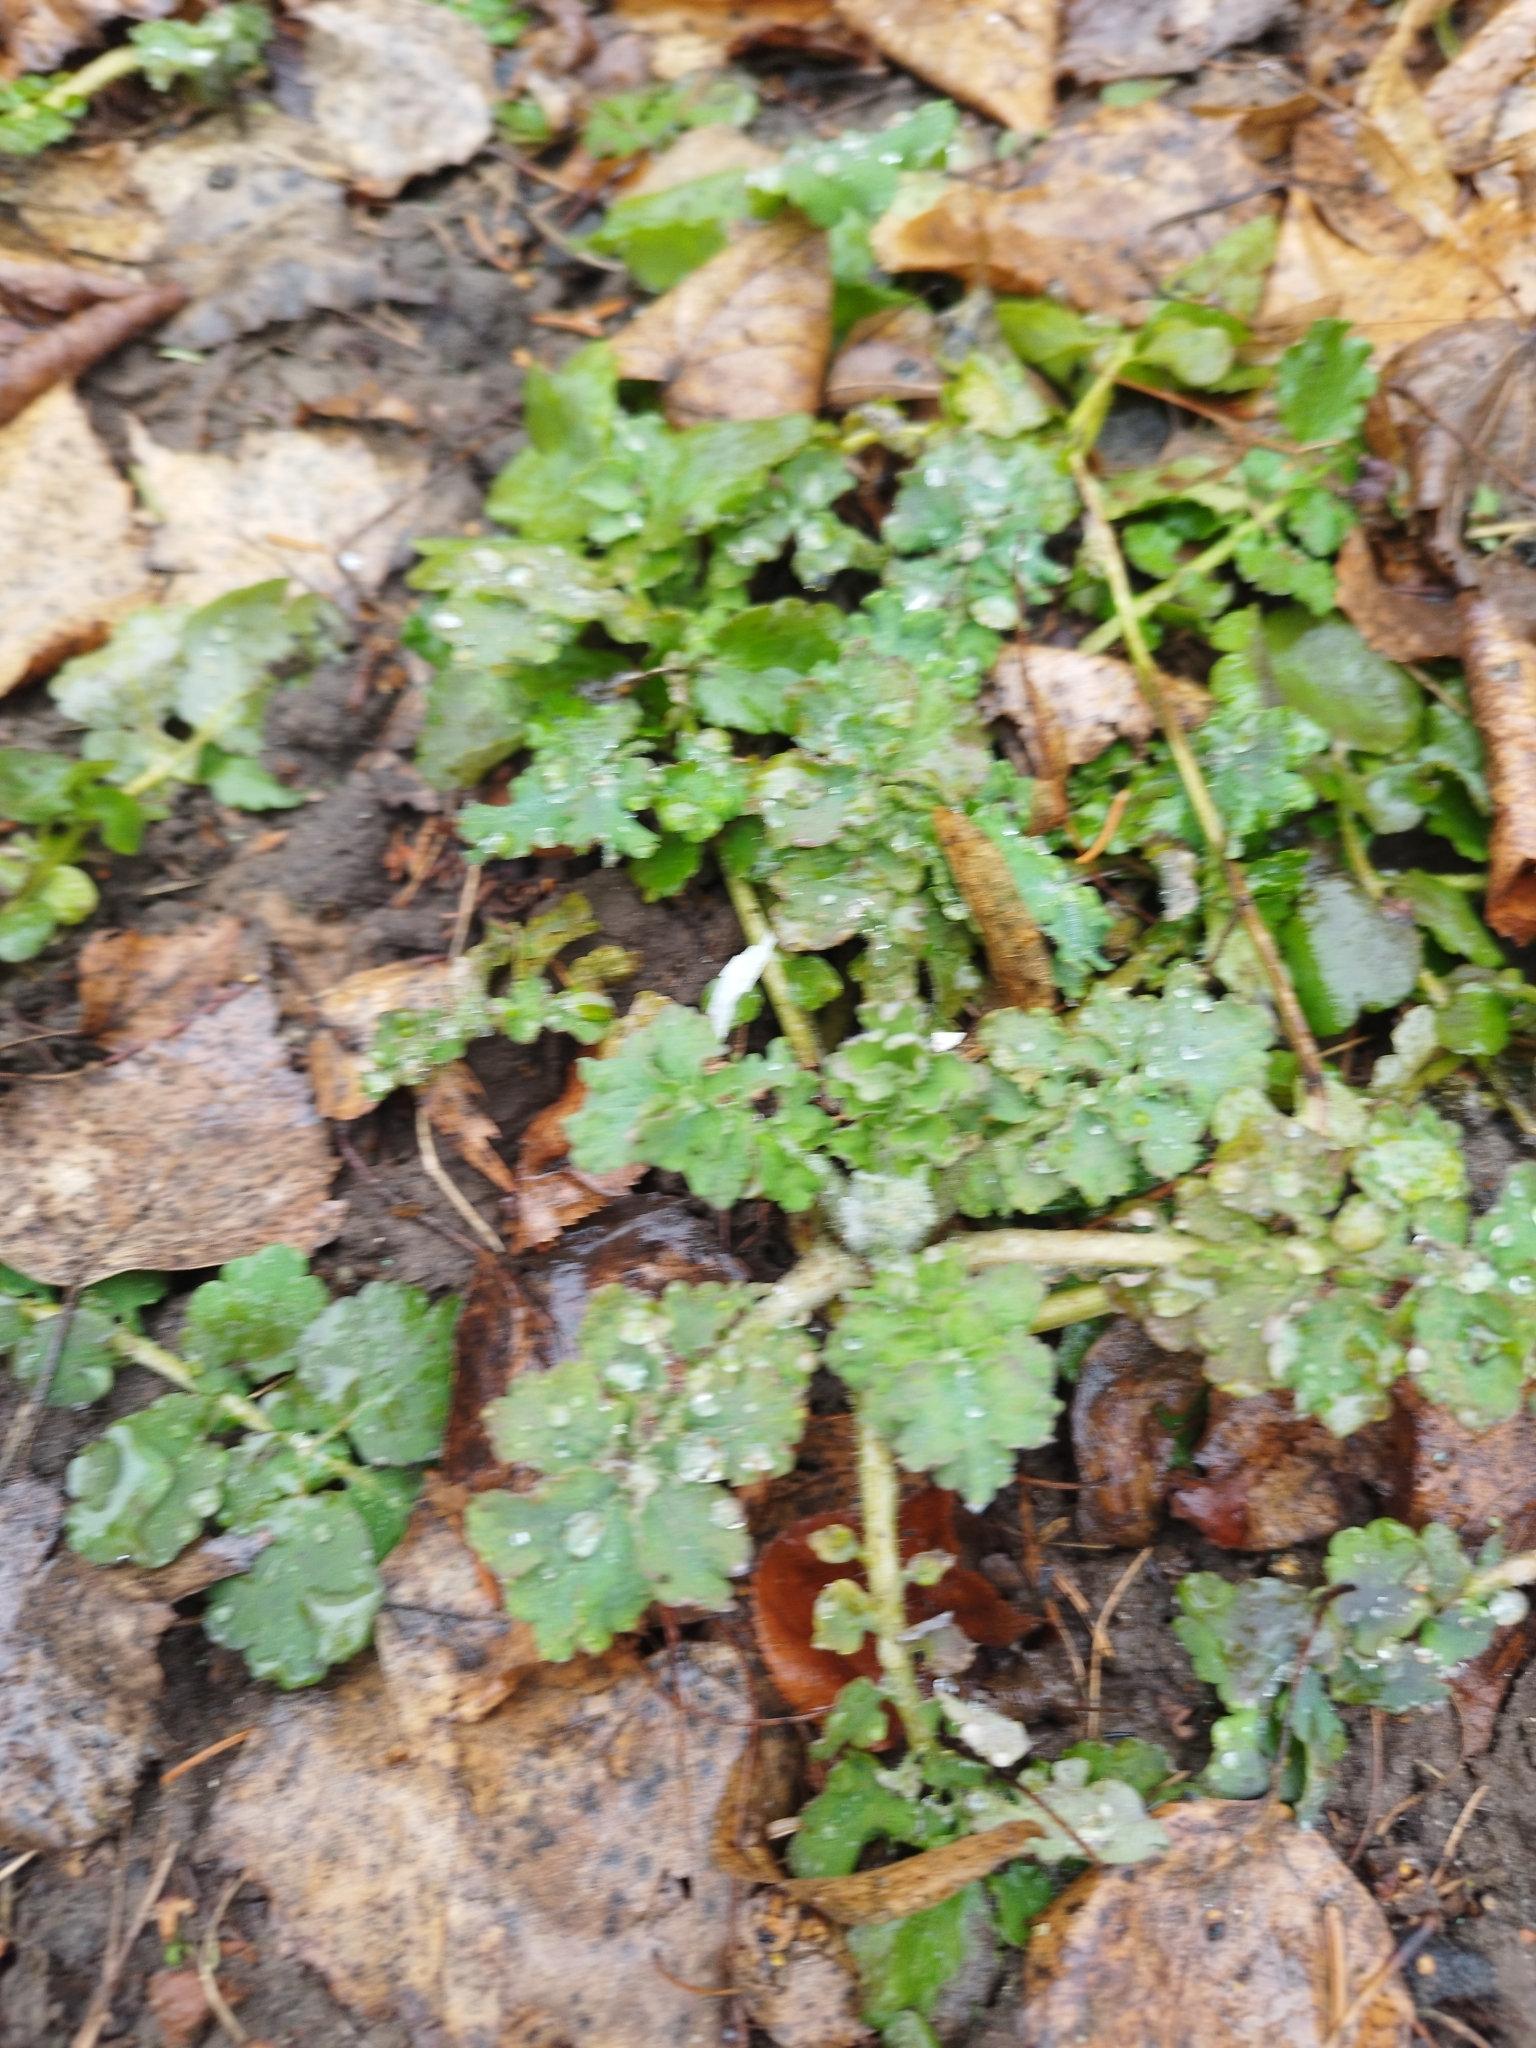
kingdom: Plantae
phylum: Tracheophyta
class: Magnoliopsida
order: Ranunculales
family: Papaveraceae
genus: Chelidonium
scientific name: Chelidonium majus
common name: Greater celandine
